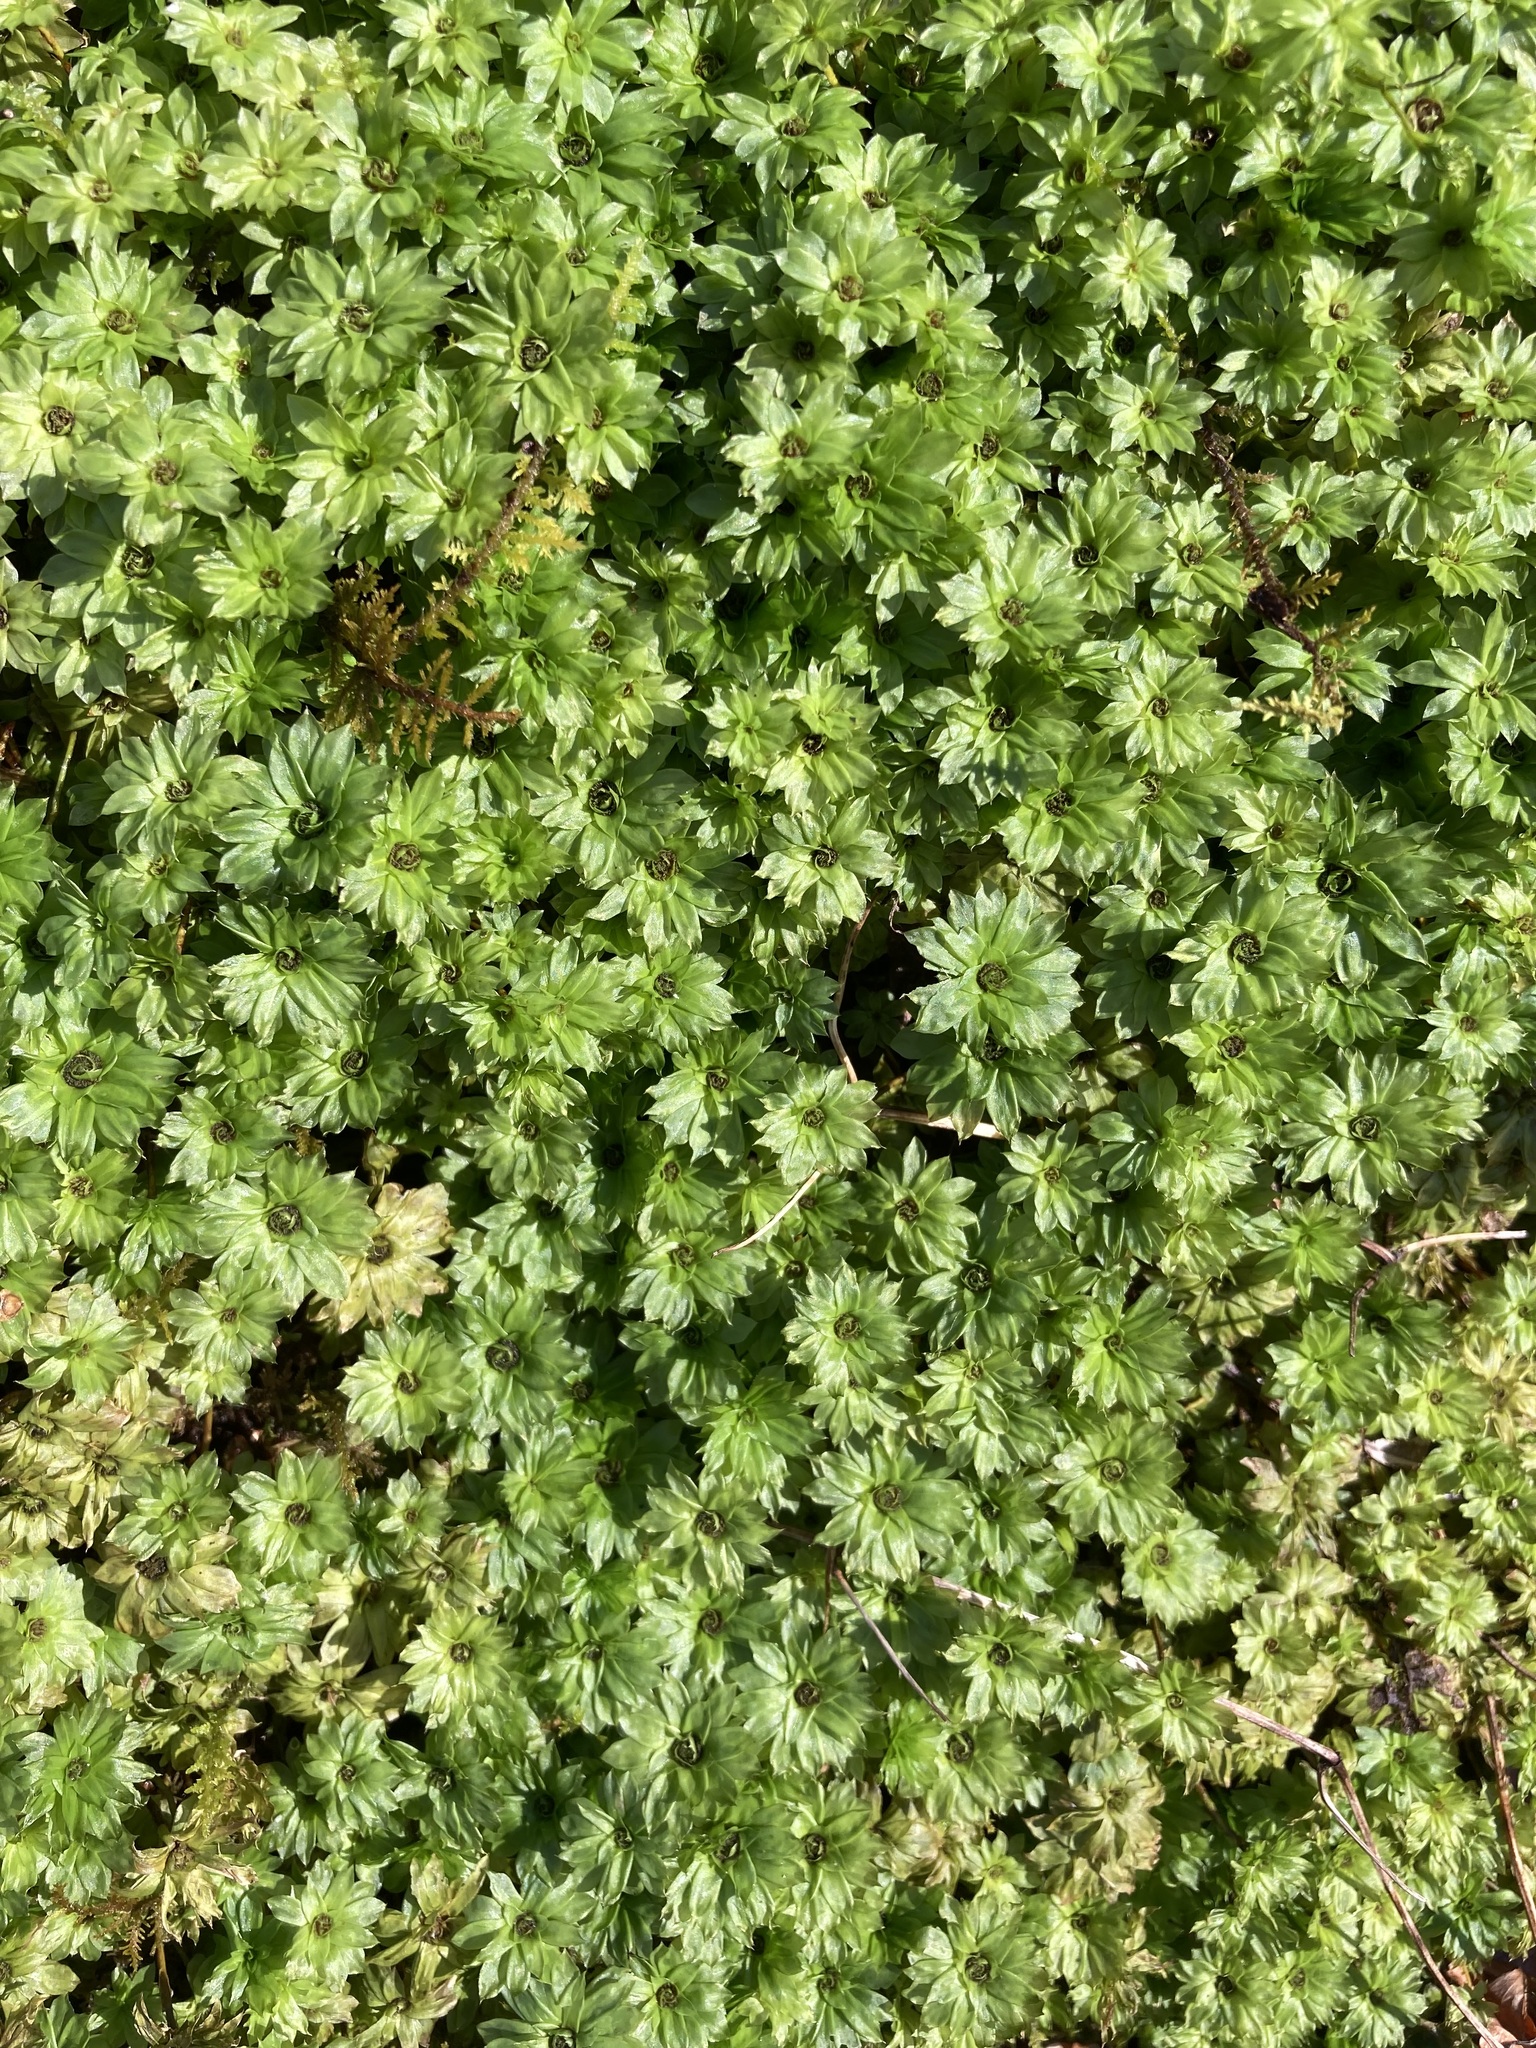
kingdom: Plantae
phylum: Bryophyta
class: Bryopsida
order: Bryales
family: Bryaceae
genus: Rhodobryum
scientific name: Rhodobryum ontariense
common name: Ontario rhodobryum moss
